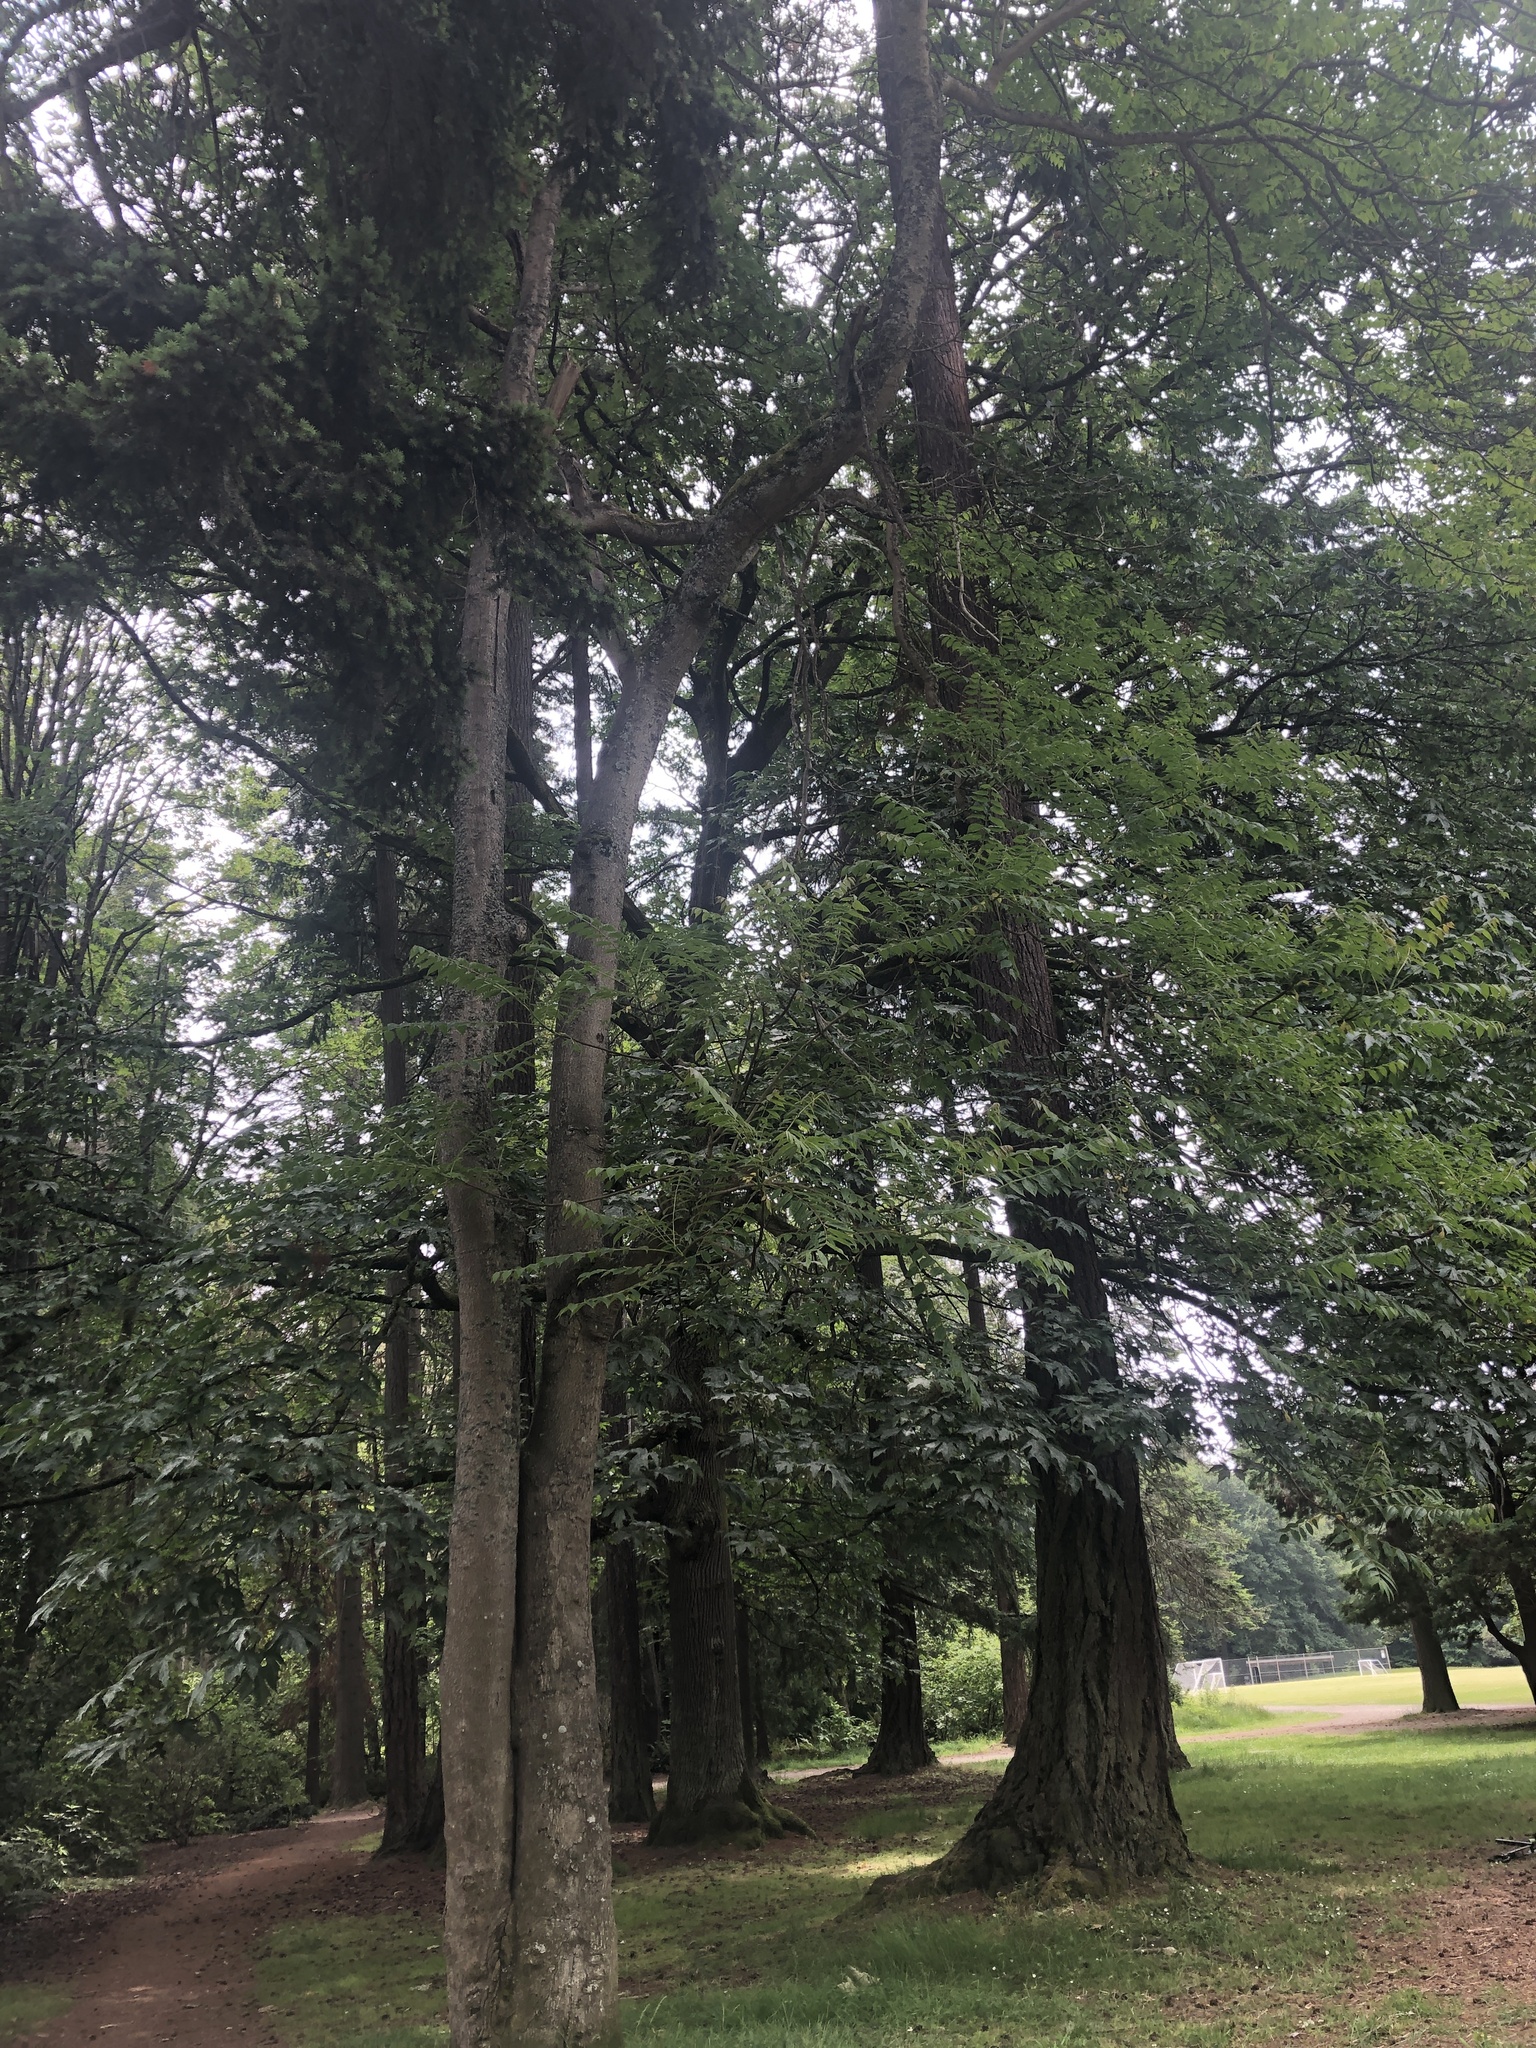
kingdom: Plantae
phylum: Tracheophyta
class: Magnoliopsida
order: Sapindales
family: Simaroubaceae
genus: Ailanthus
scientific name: Ailanthus altissima
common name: Tree-of-heaven
